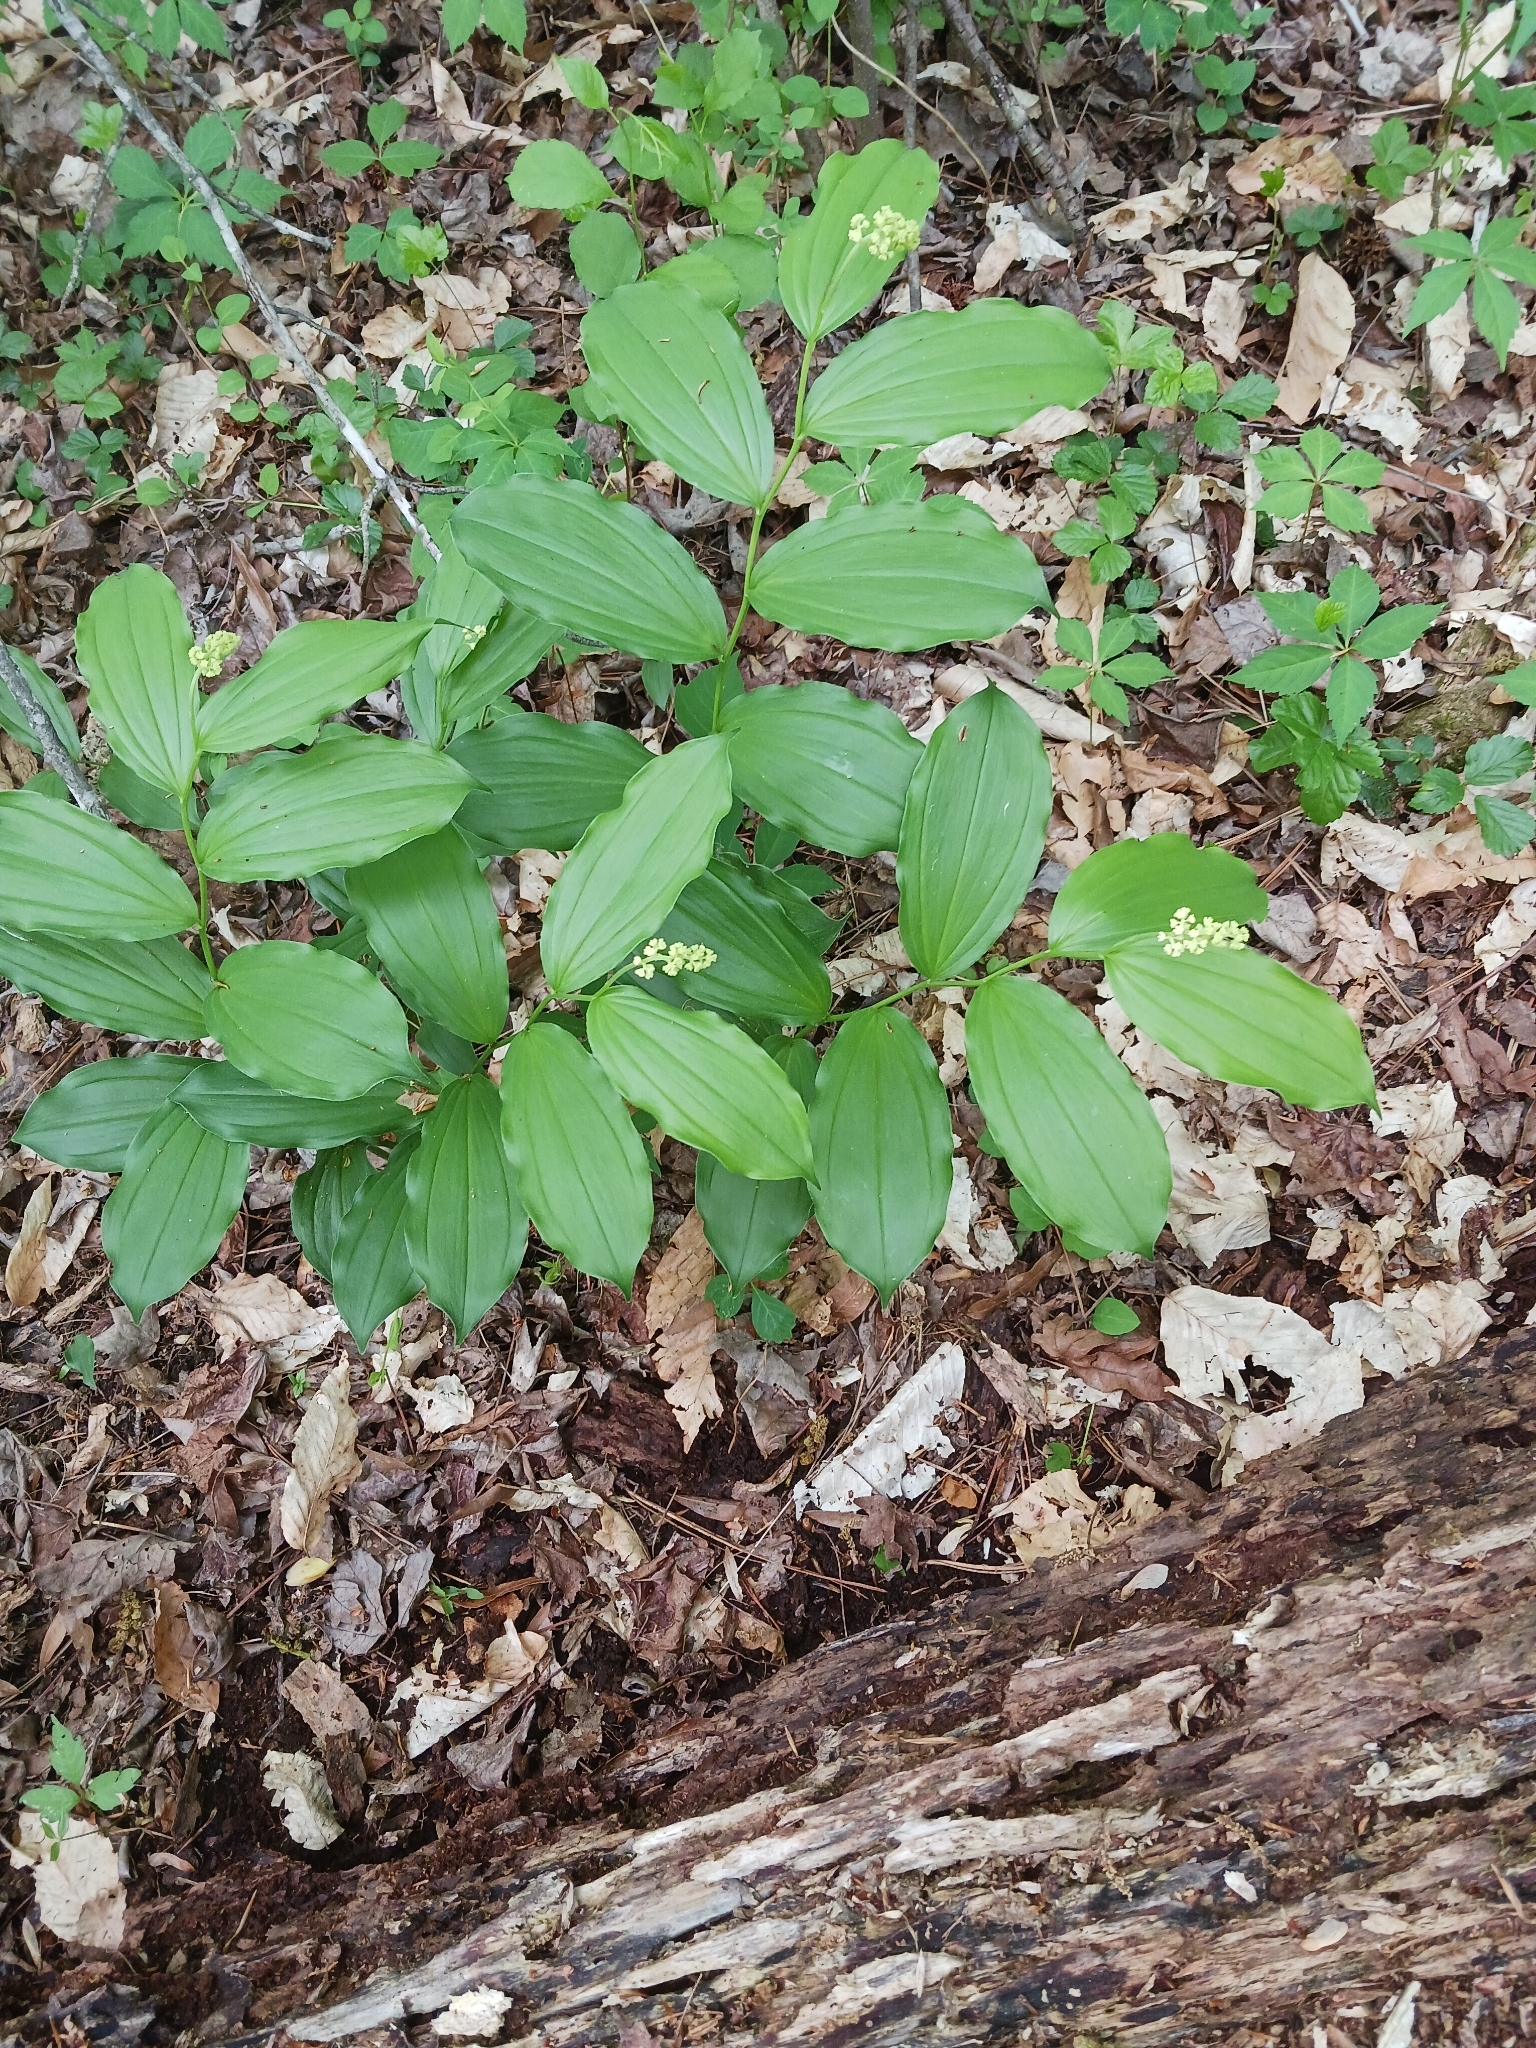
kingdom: Plantae
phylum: Tracheophyta
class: Liliopsida
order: Asparagales
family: Asparagaceae
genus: Maianthemum
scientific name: Maianthemum racemosum
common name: False spikenard
